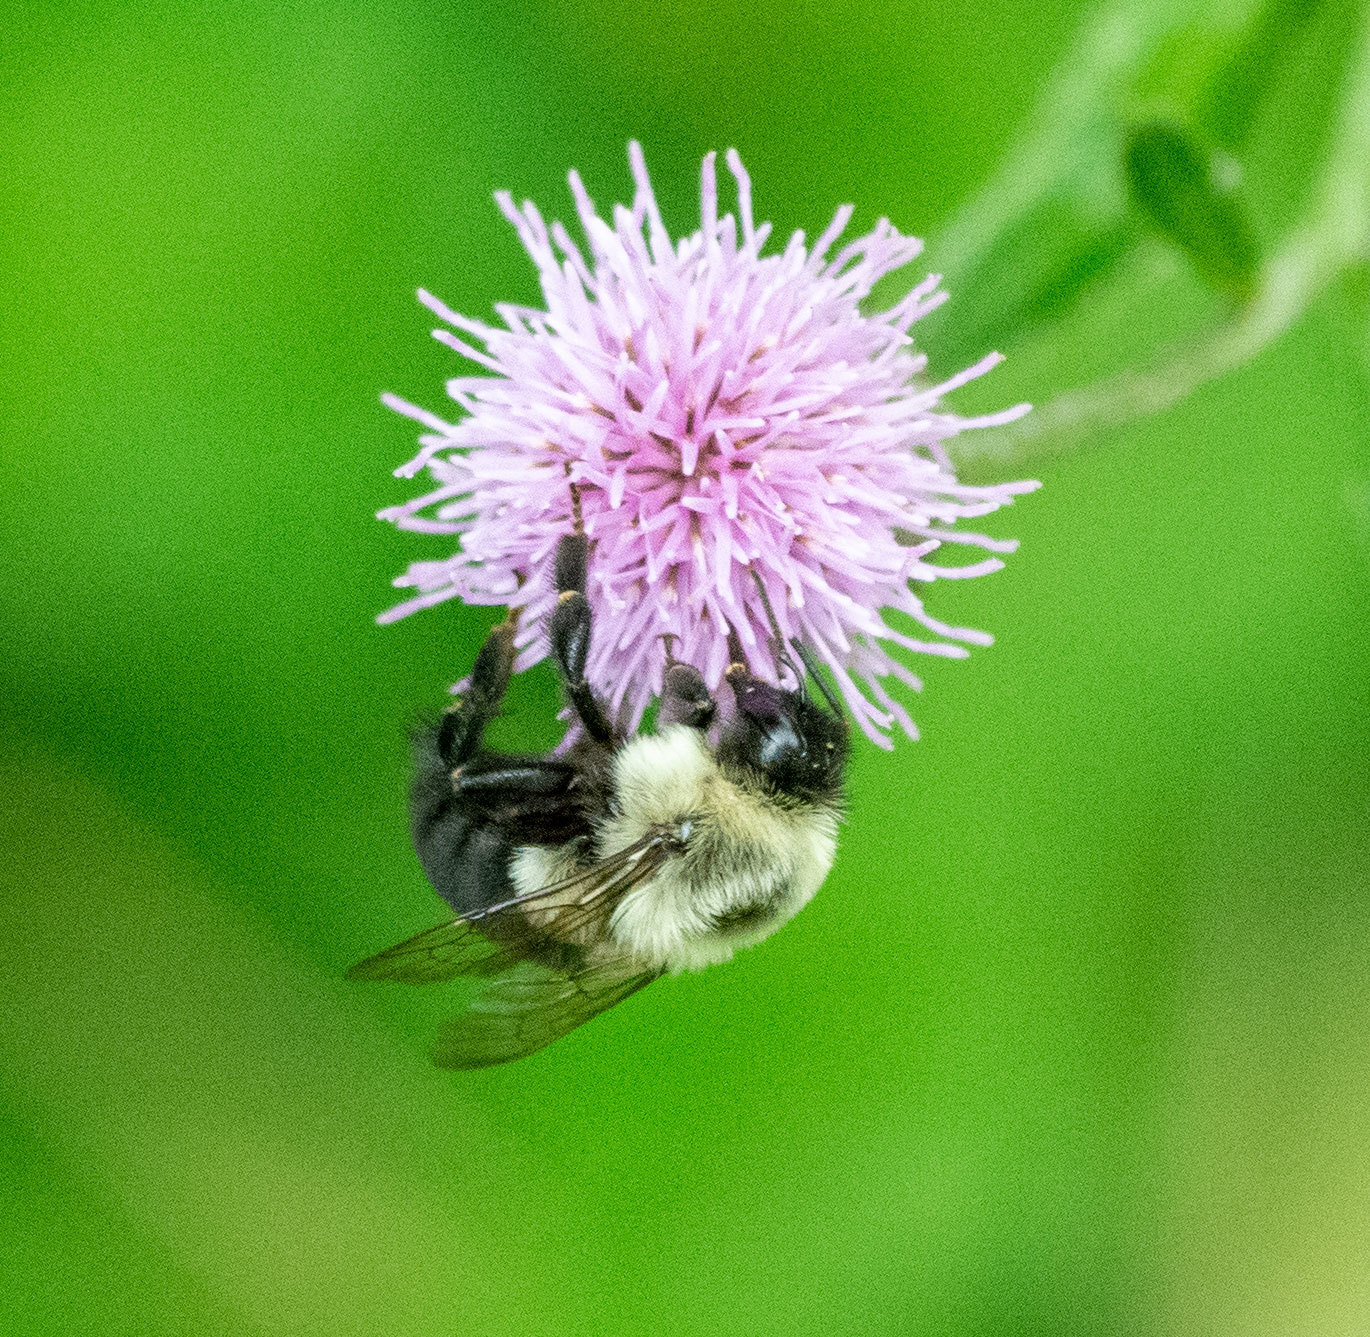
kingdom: Animalia
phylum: Arthropoda
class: Insecta
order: Hymenoptera
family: Apidae
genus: Bombus
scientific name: Bombus impatiens
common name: Common eastern bumble bee
